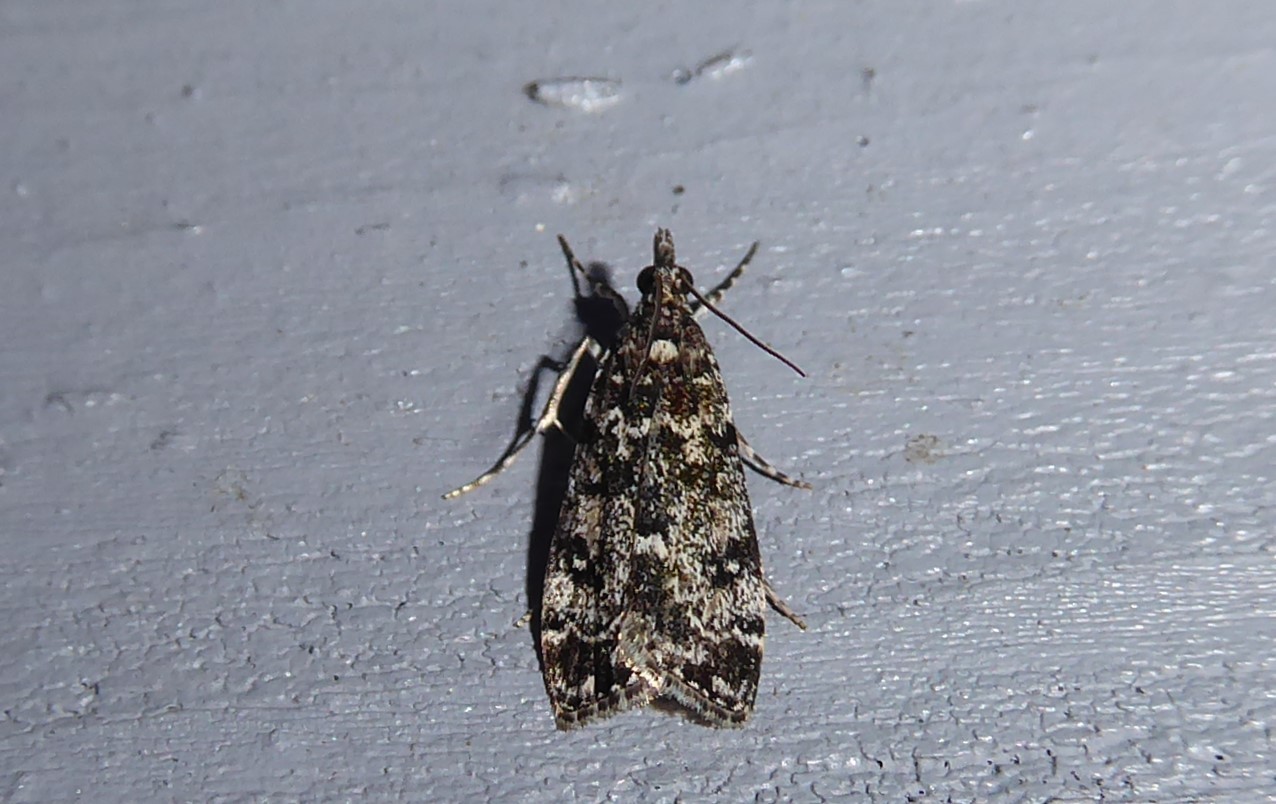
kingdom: Animalia
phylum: Arthropoda
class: Insecta
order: Lepidoptera
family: Crambidae
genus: Eudonia
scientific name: Eudonia philerga
